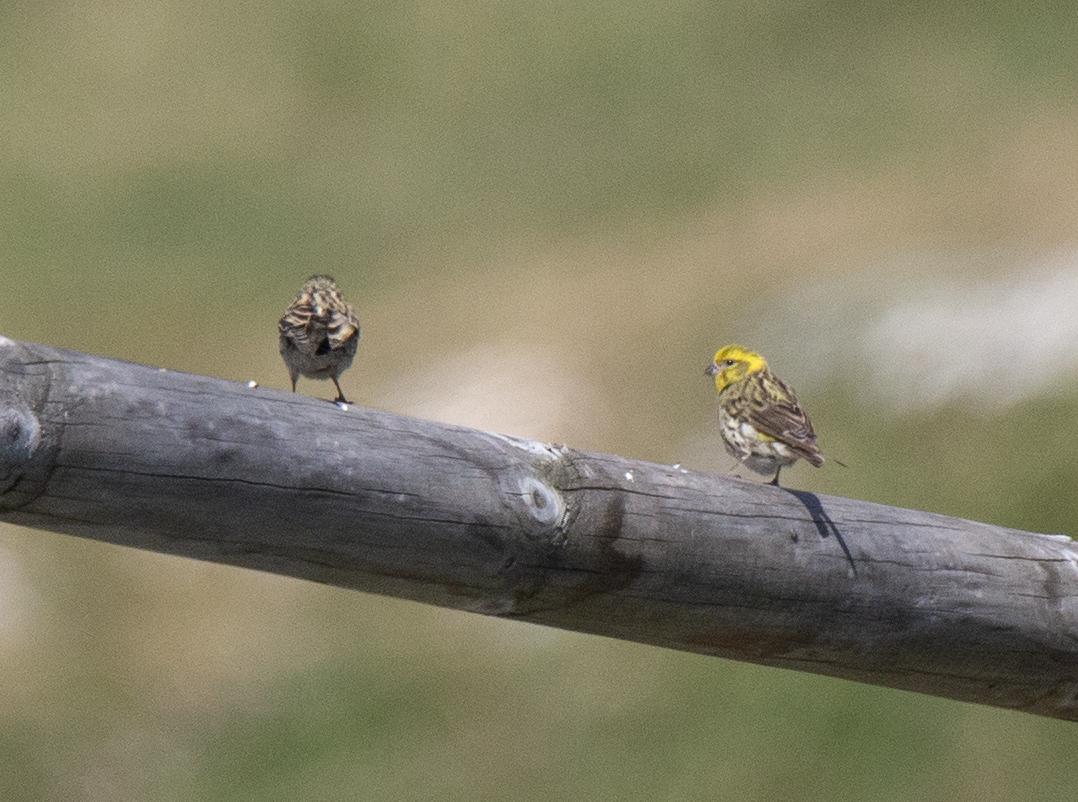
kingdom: Animalia
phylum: Chordata
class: Aves
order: Passeriformes
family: Fringillidae
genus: Serinus
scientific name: Serinus serinus
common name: European serin
